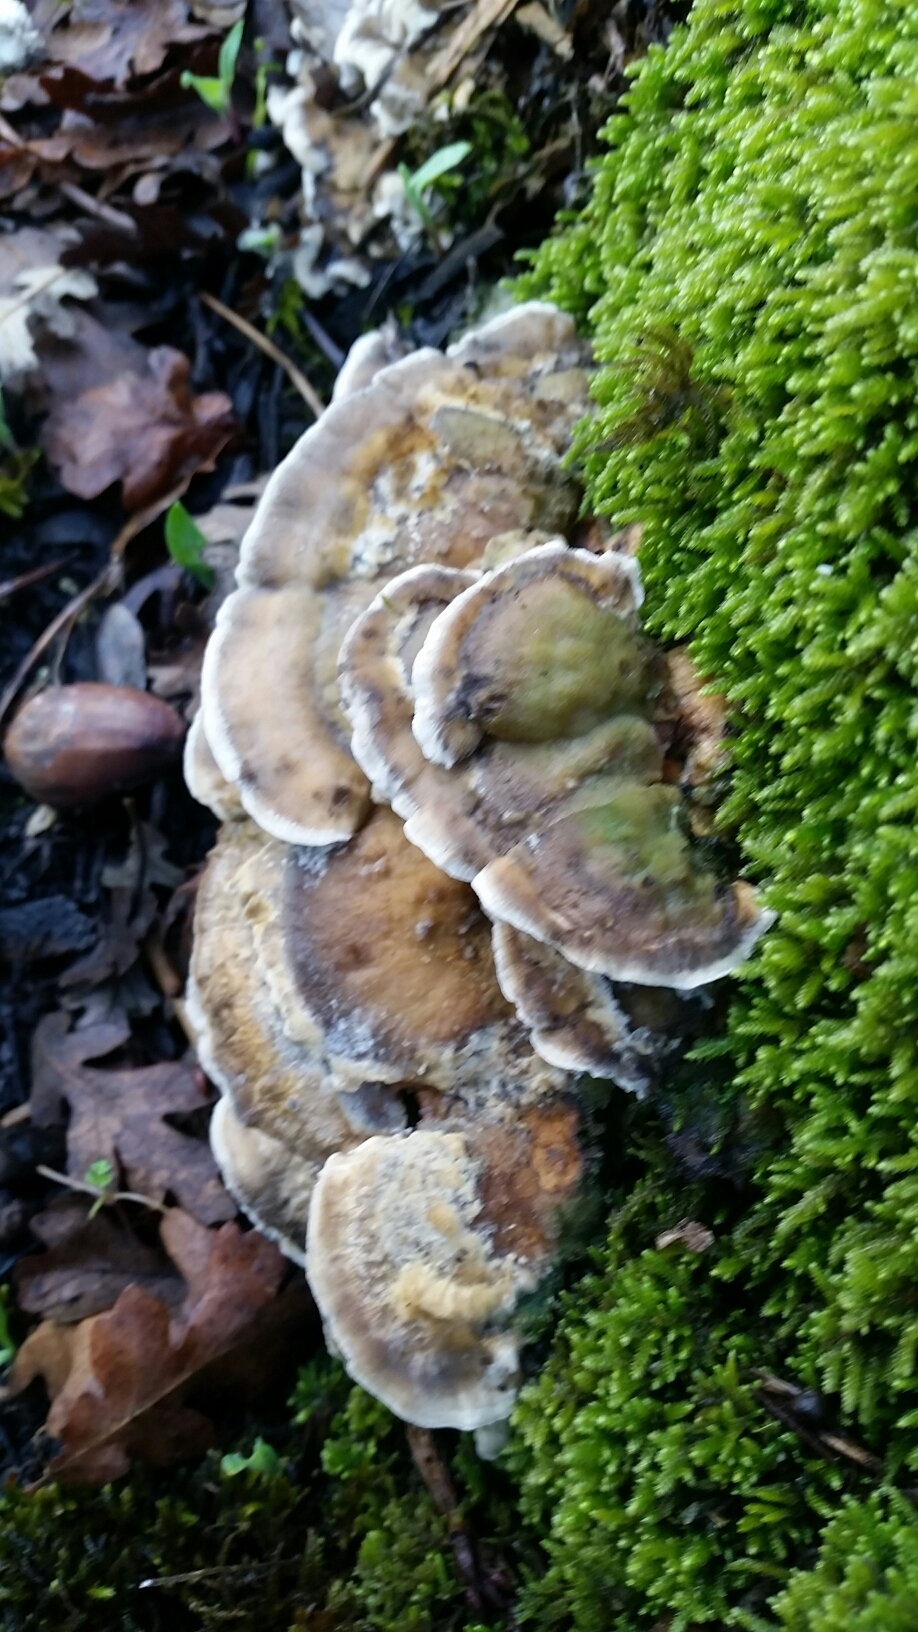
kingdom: Fungi
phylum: Basidiomycota
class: Agaricomycetes
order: Polyporales
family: Phanerochaetaceae
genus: Bjerkandera
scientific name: Bjerkandera adusta
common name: Smoky bracket
